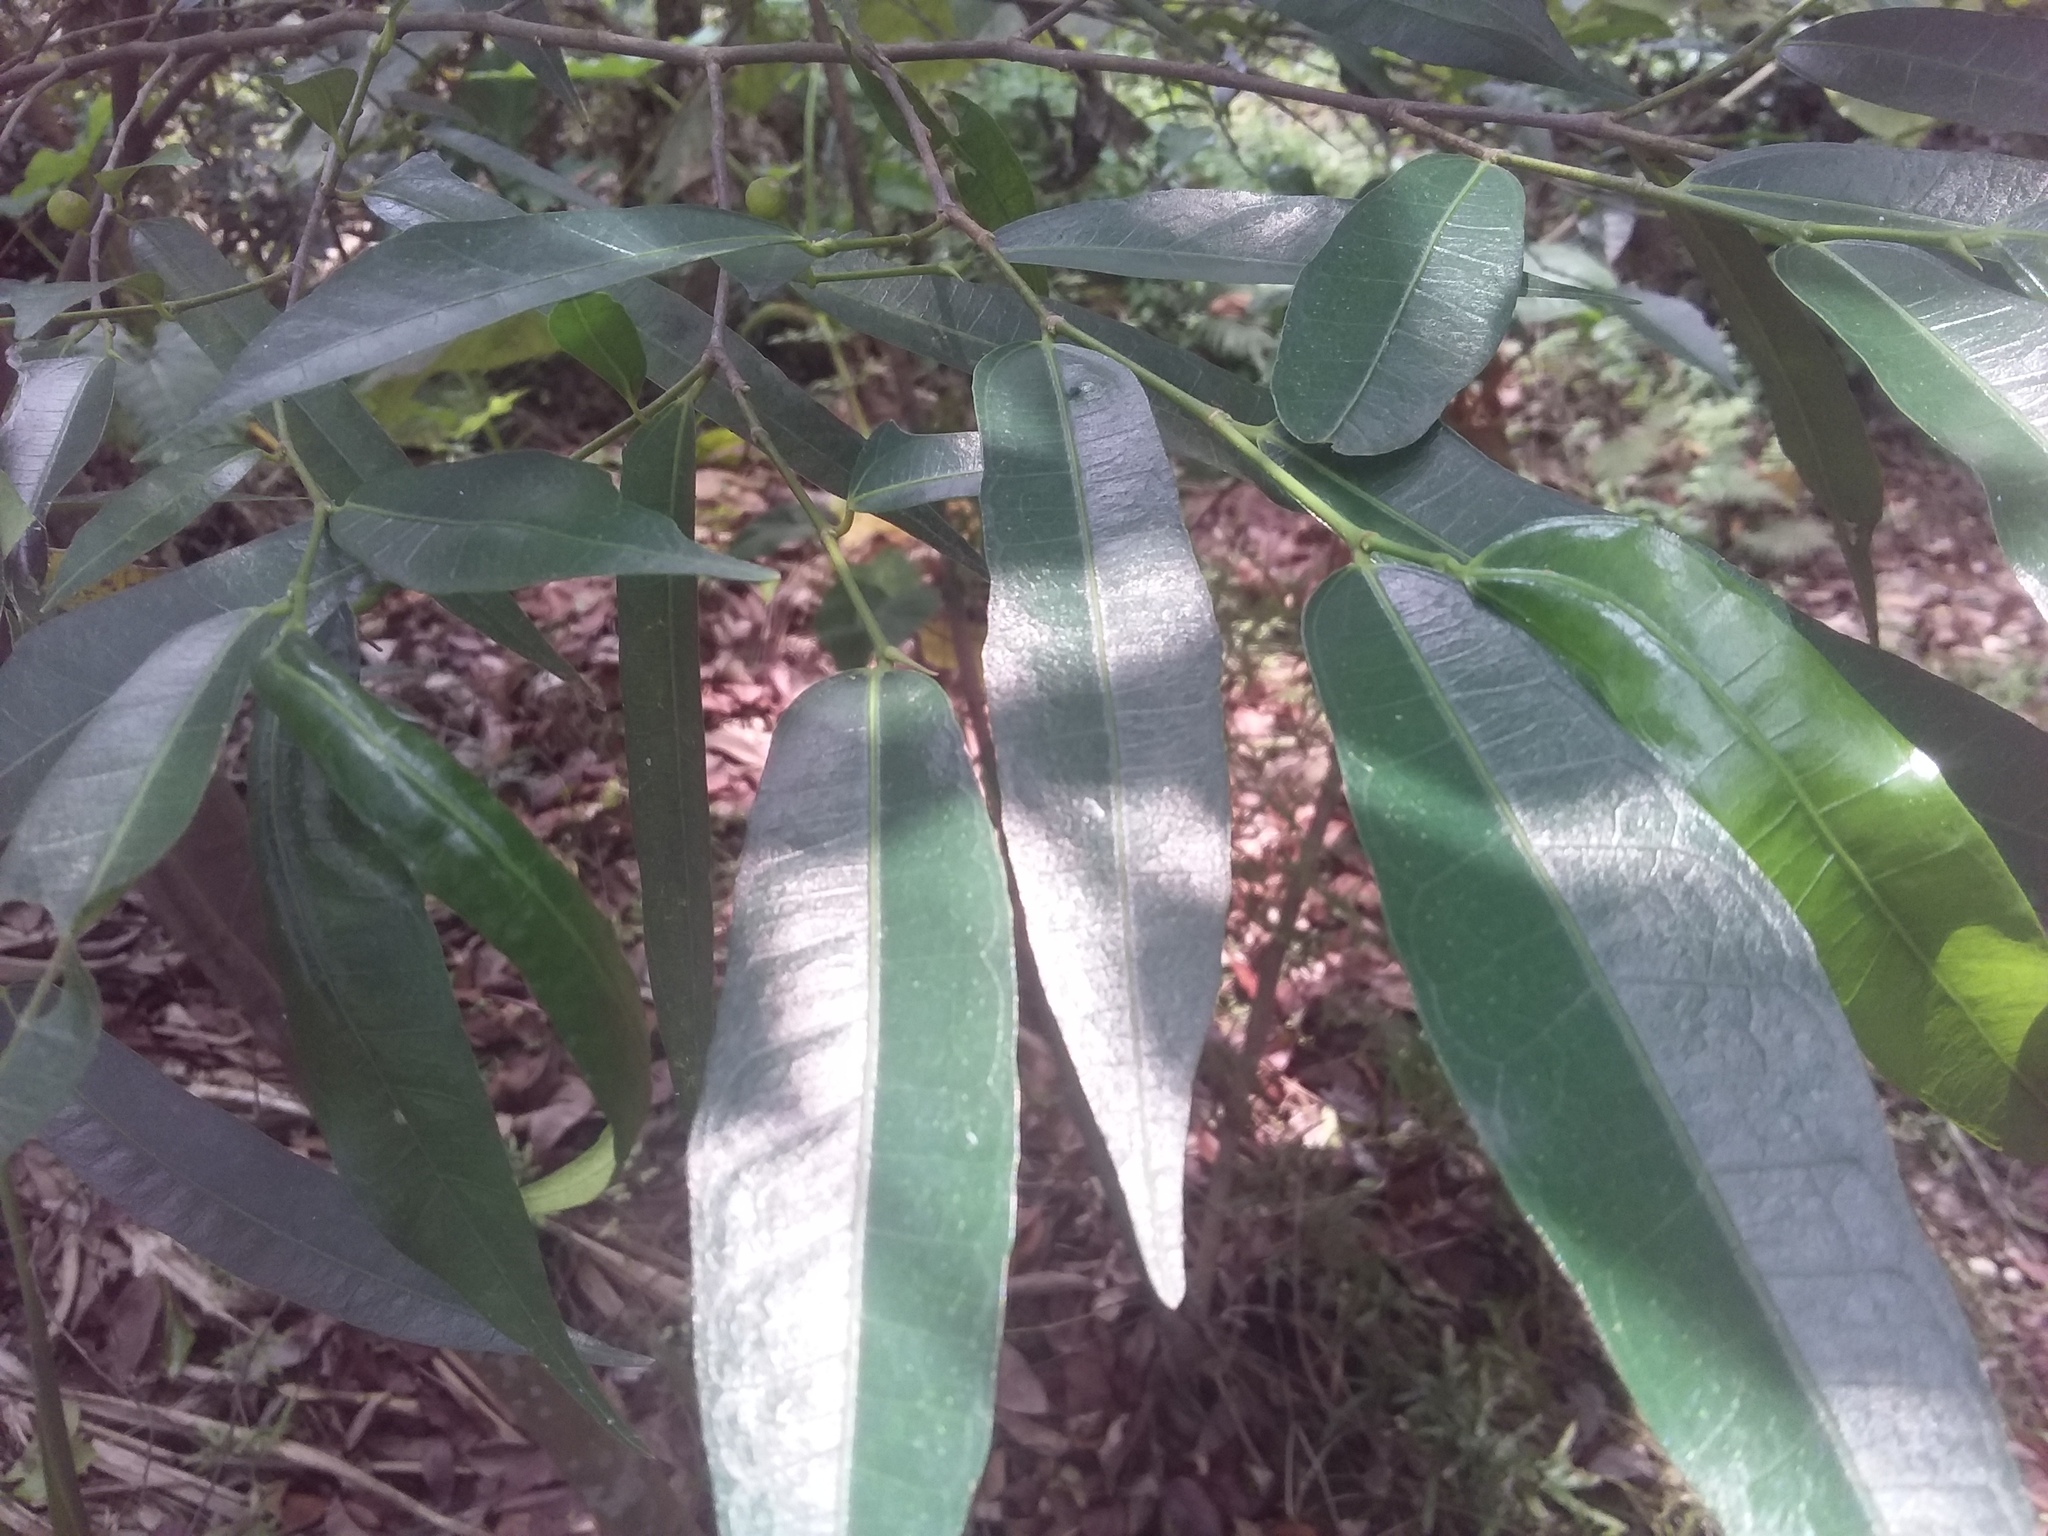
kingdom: Plantae
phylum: Tracheophyta
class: Magnoliopsida
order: Rosales
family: Moraceae
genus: Ficus
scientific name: Ficus ampelos
